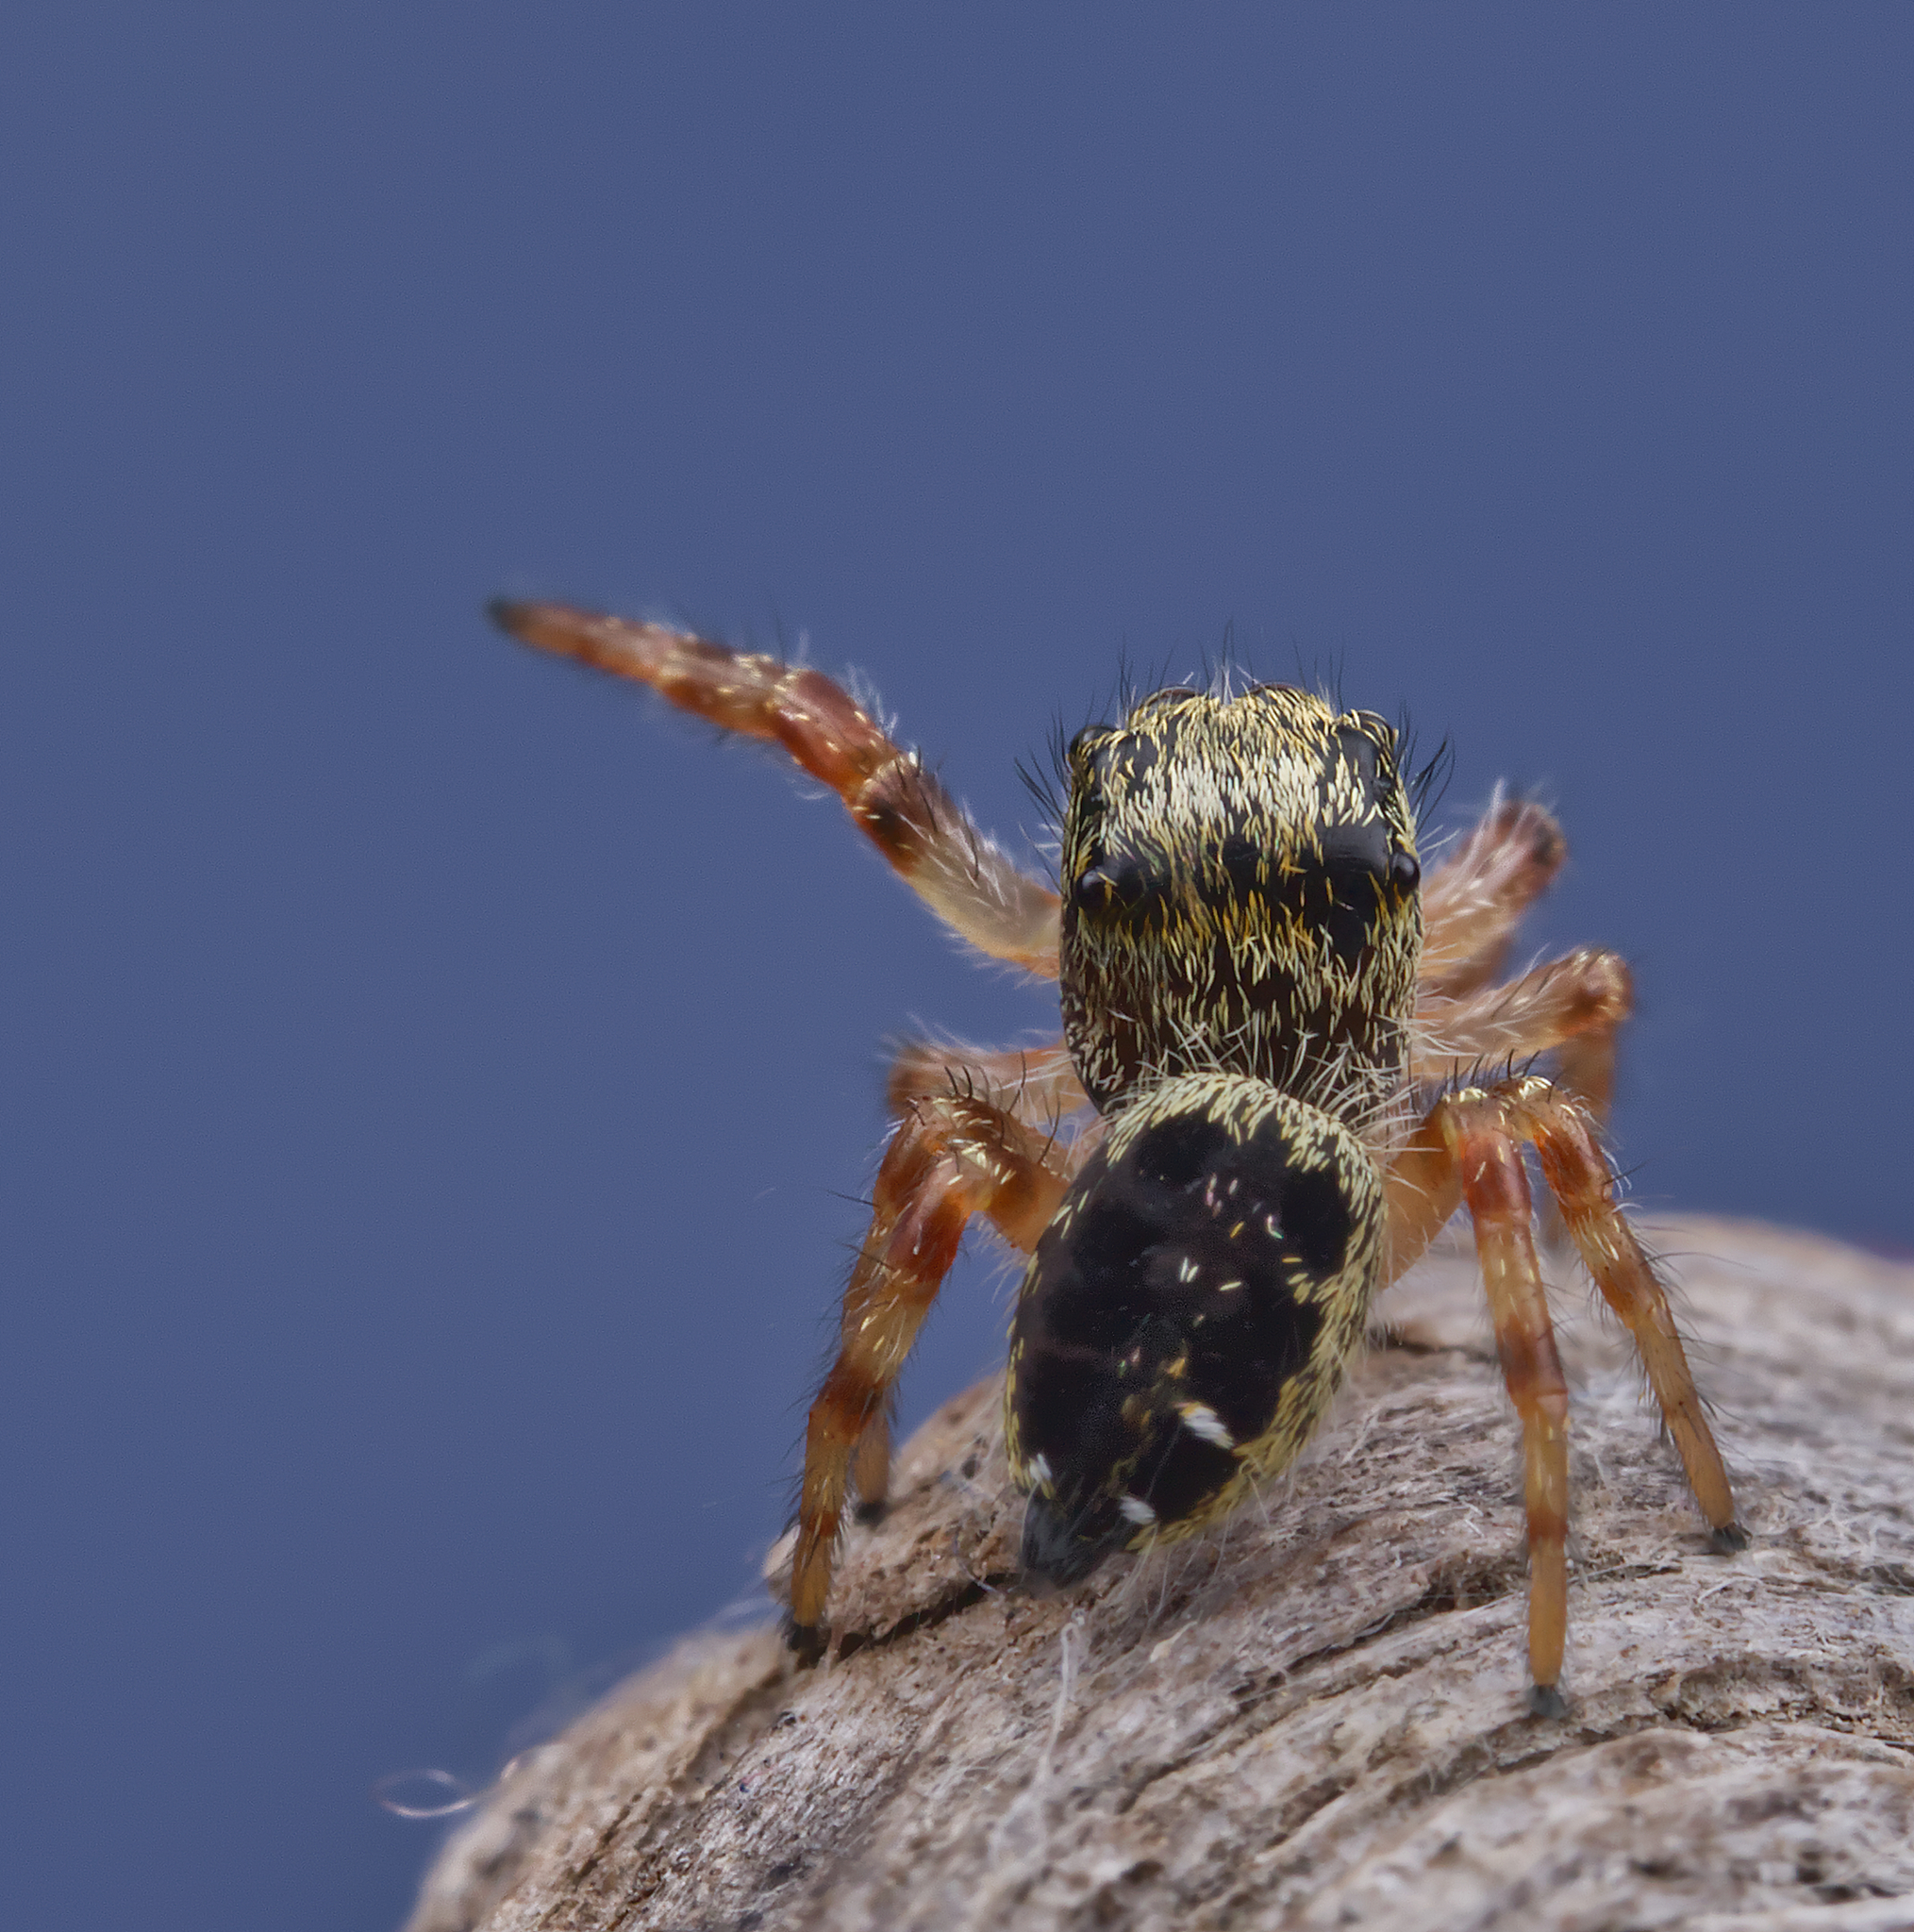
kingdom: Animalia
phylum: Arthropoda
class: Arachnida
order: Araneae
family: Salticidae
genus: Phidippus
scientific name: Phidippus princeps
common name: Grayish jumping spider
